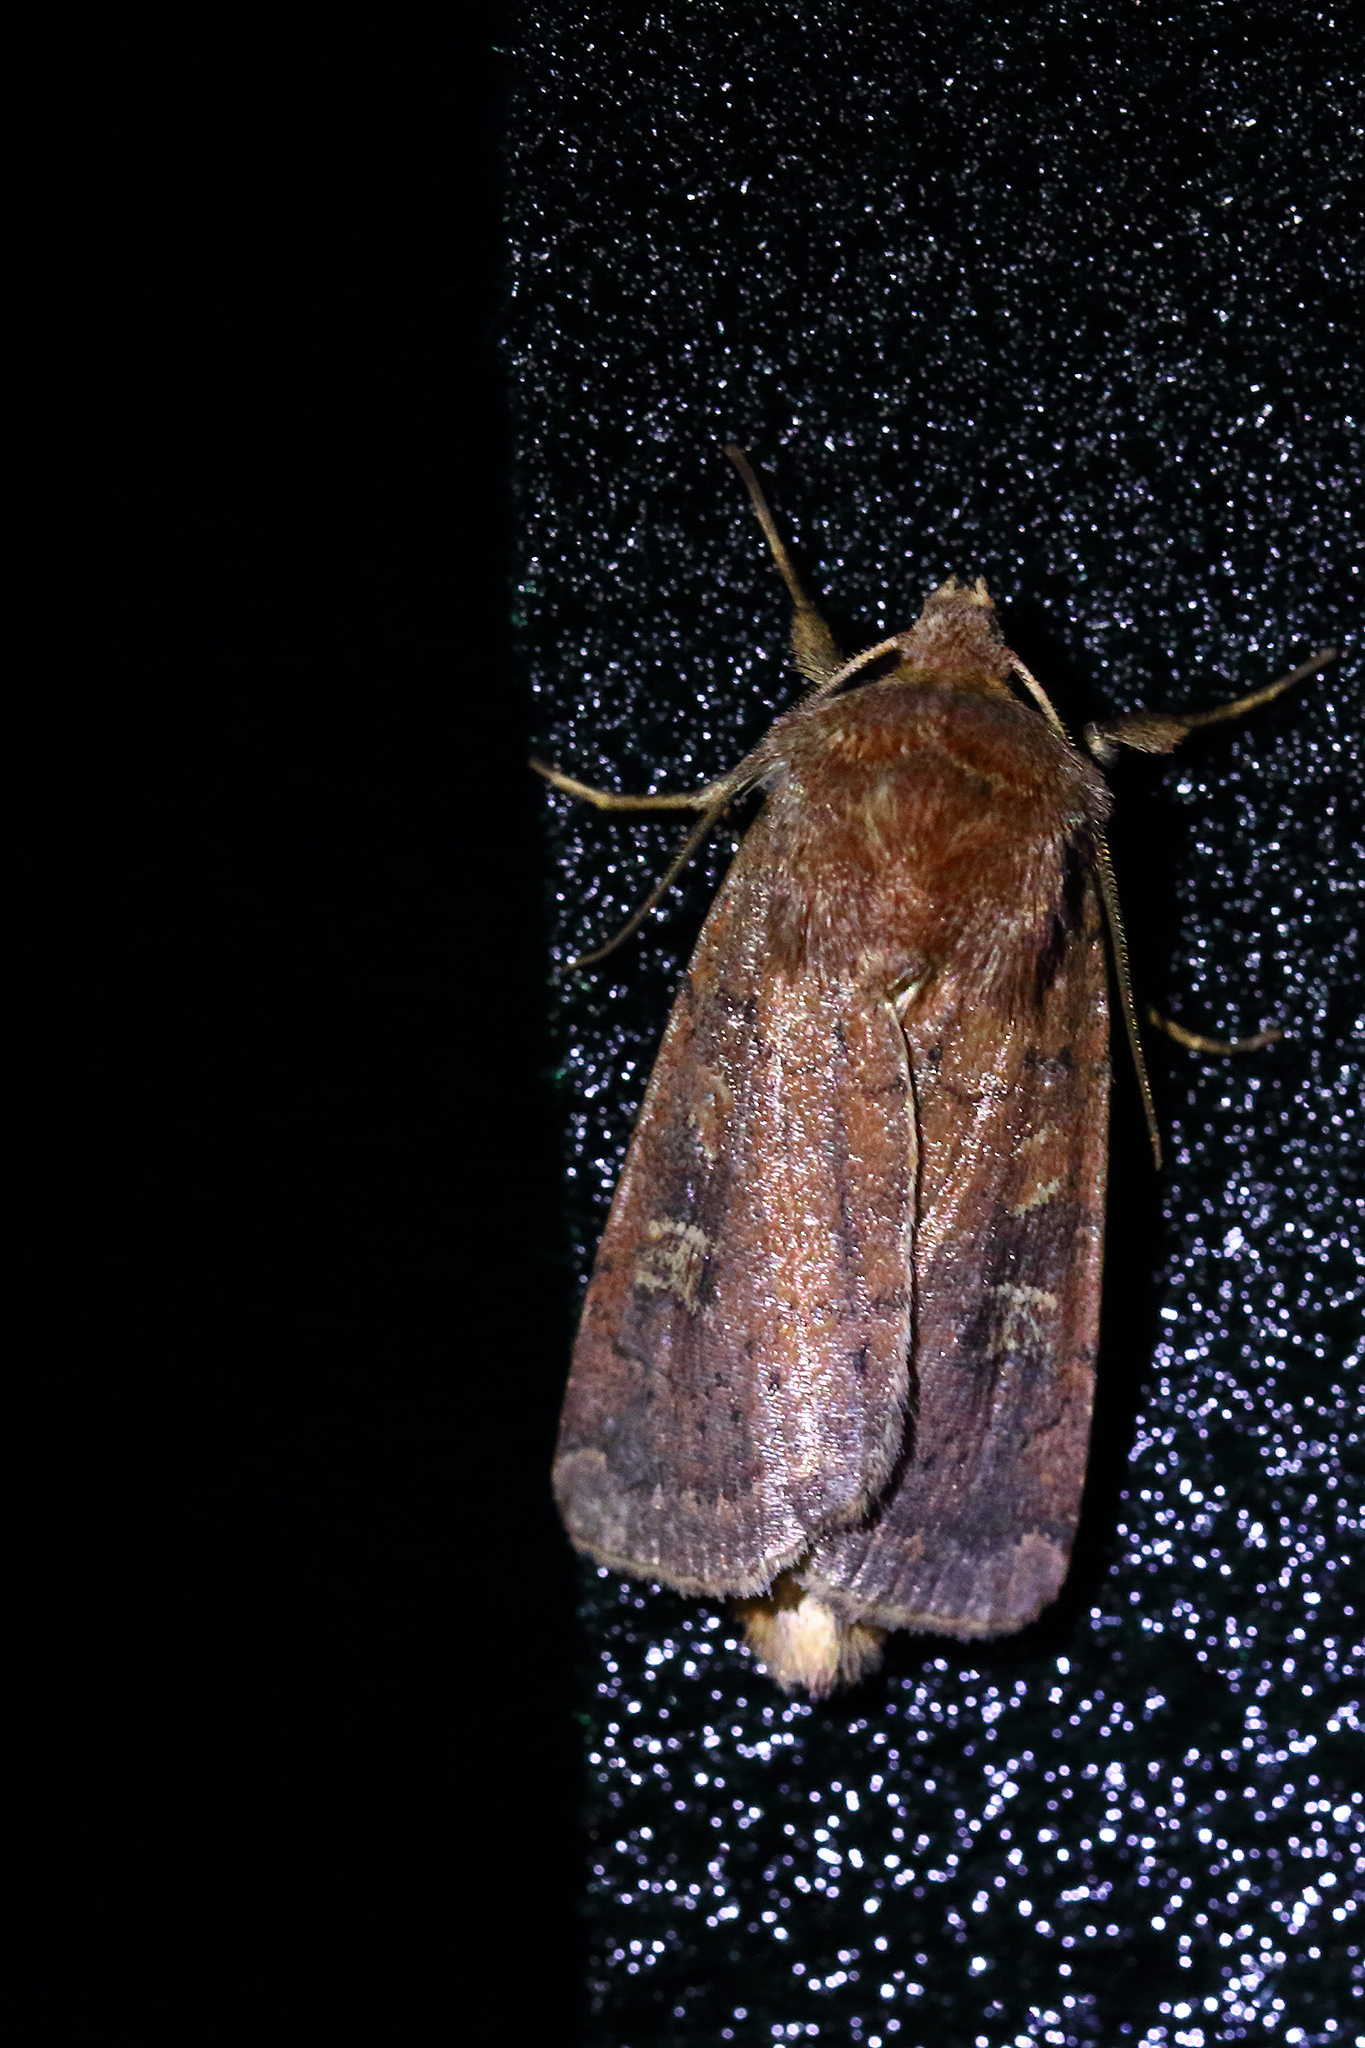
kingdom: Animalia
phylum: Arthropoda
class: Insecta
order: Lepidoptera
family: Noctuidae
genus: Xestia
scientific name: Xestia xanthographa
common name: Square-spot rustic
